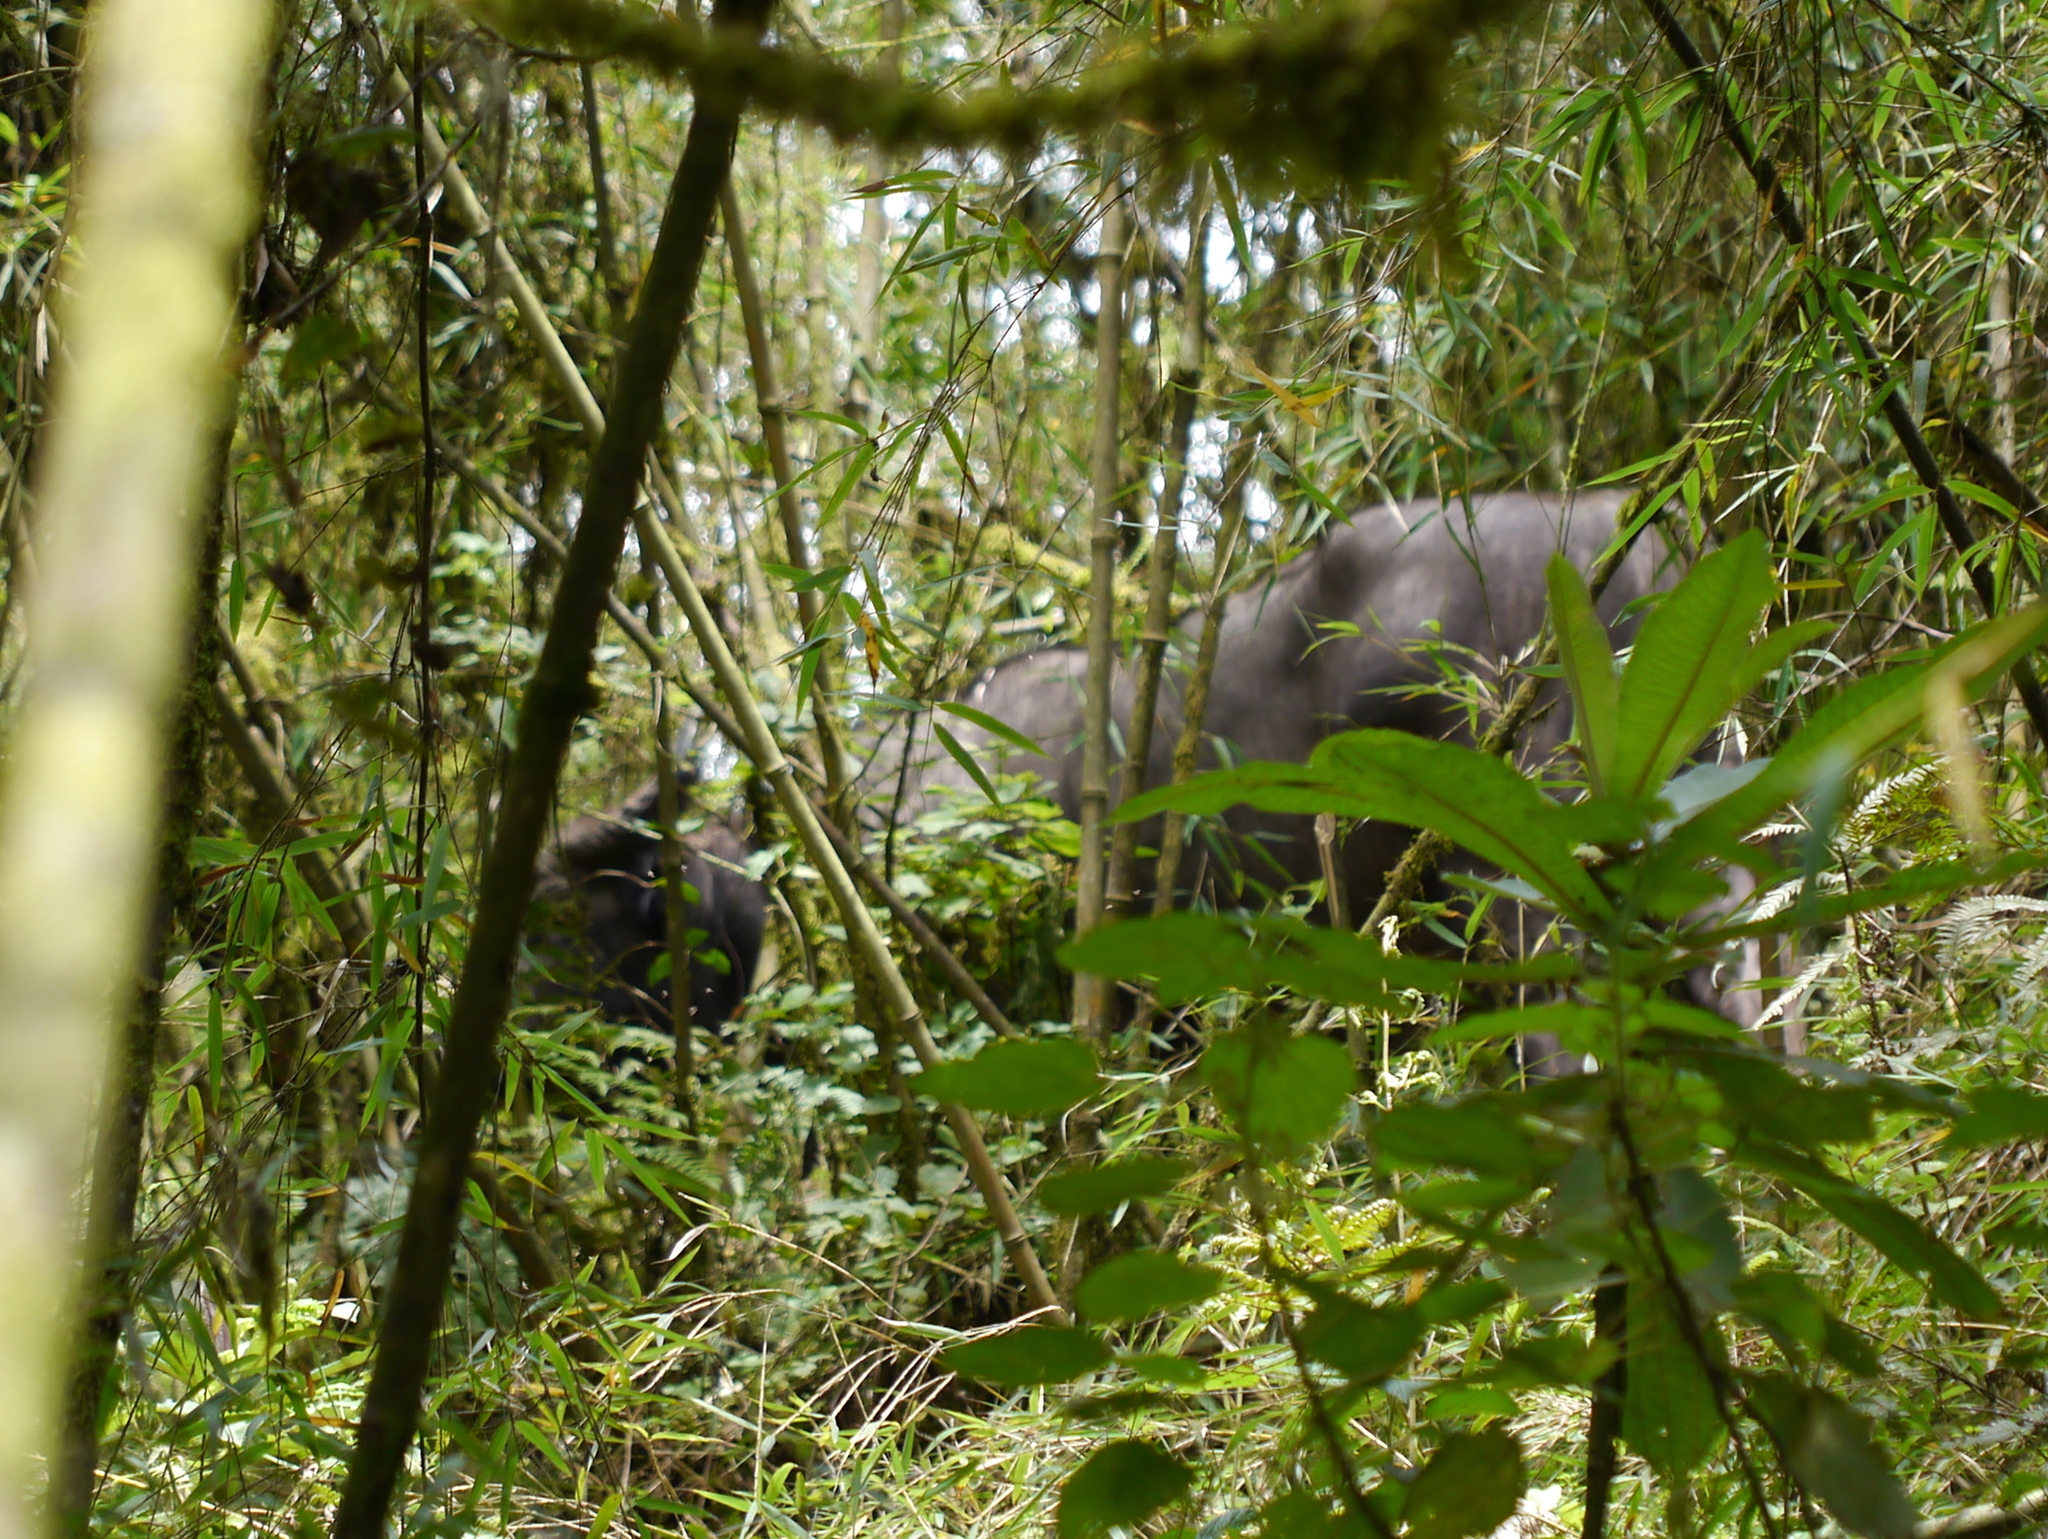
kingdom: Animalia
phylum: Chordata
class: Mammalia
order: Artiodactyla
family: Bovidae
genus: Syncerus
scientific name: Syncerus caffer
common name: African buffalo
